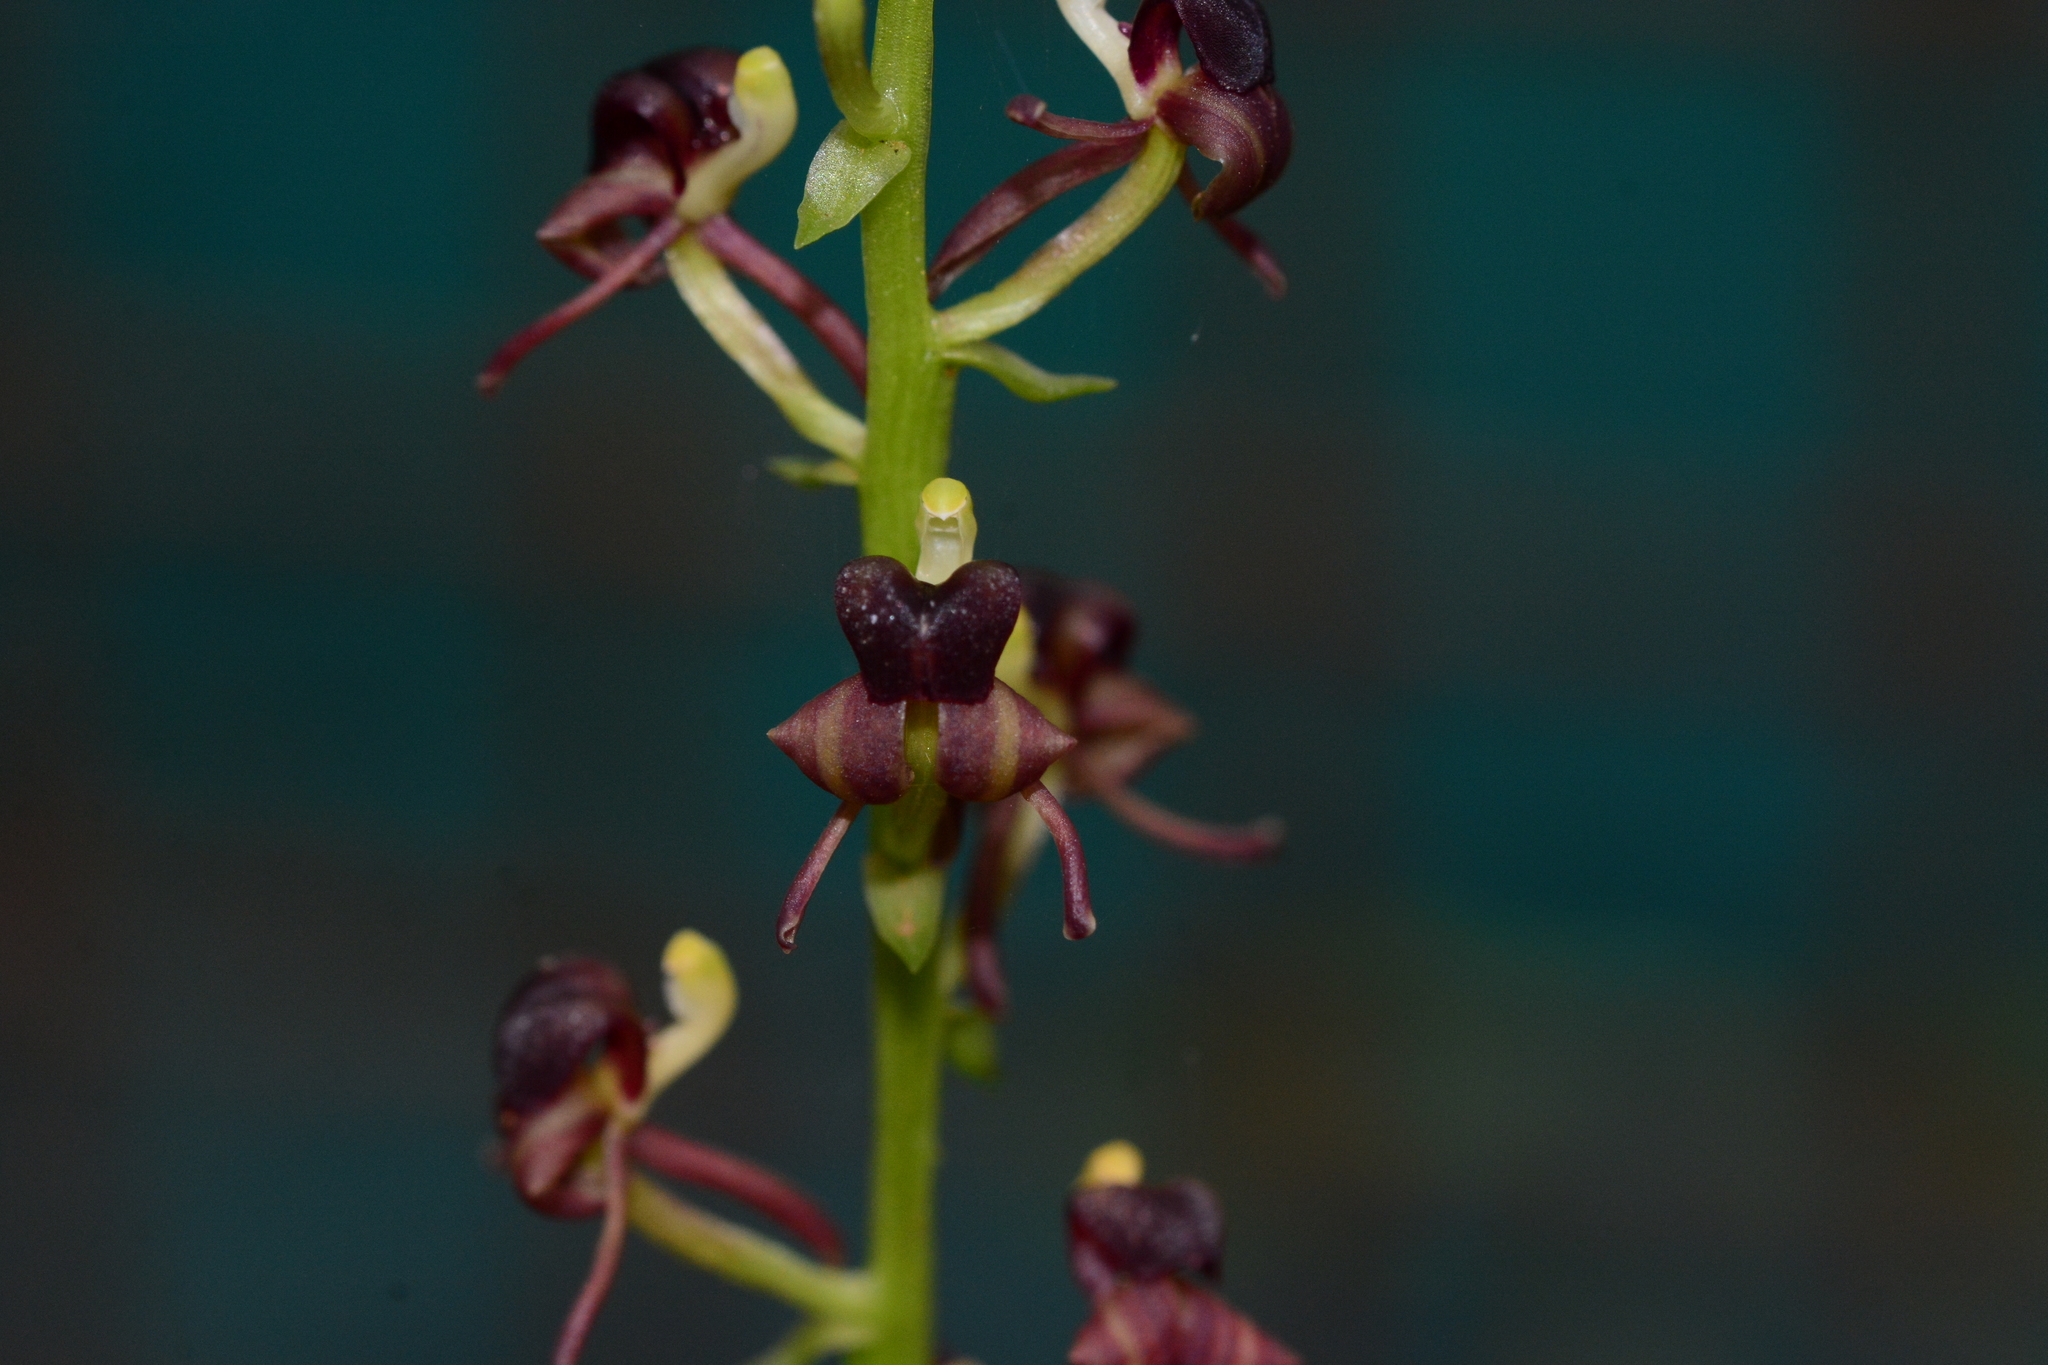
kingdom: Plantae
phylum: Tracheophyta
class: Liliopsida
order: Asparagales
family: Orchidaceae
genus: Liparis
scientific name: Liparis odorata
